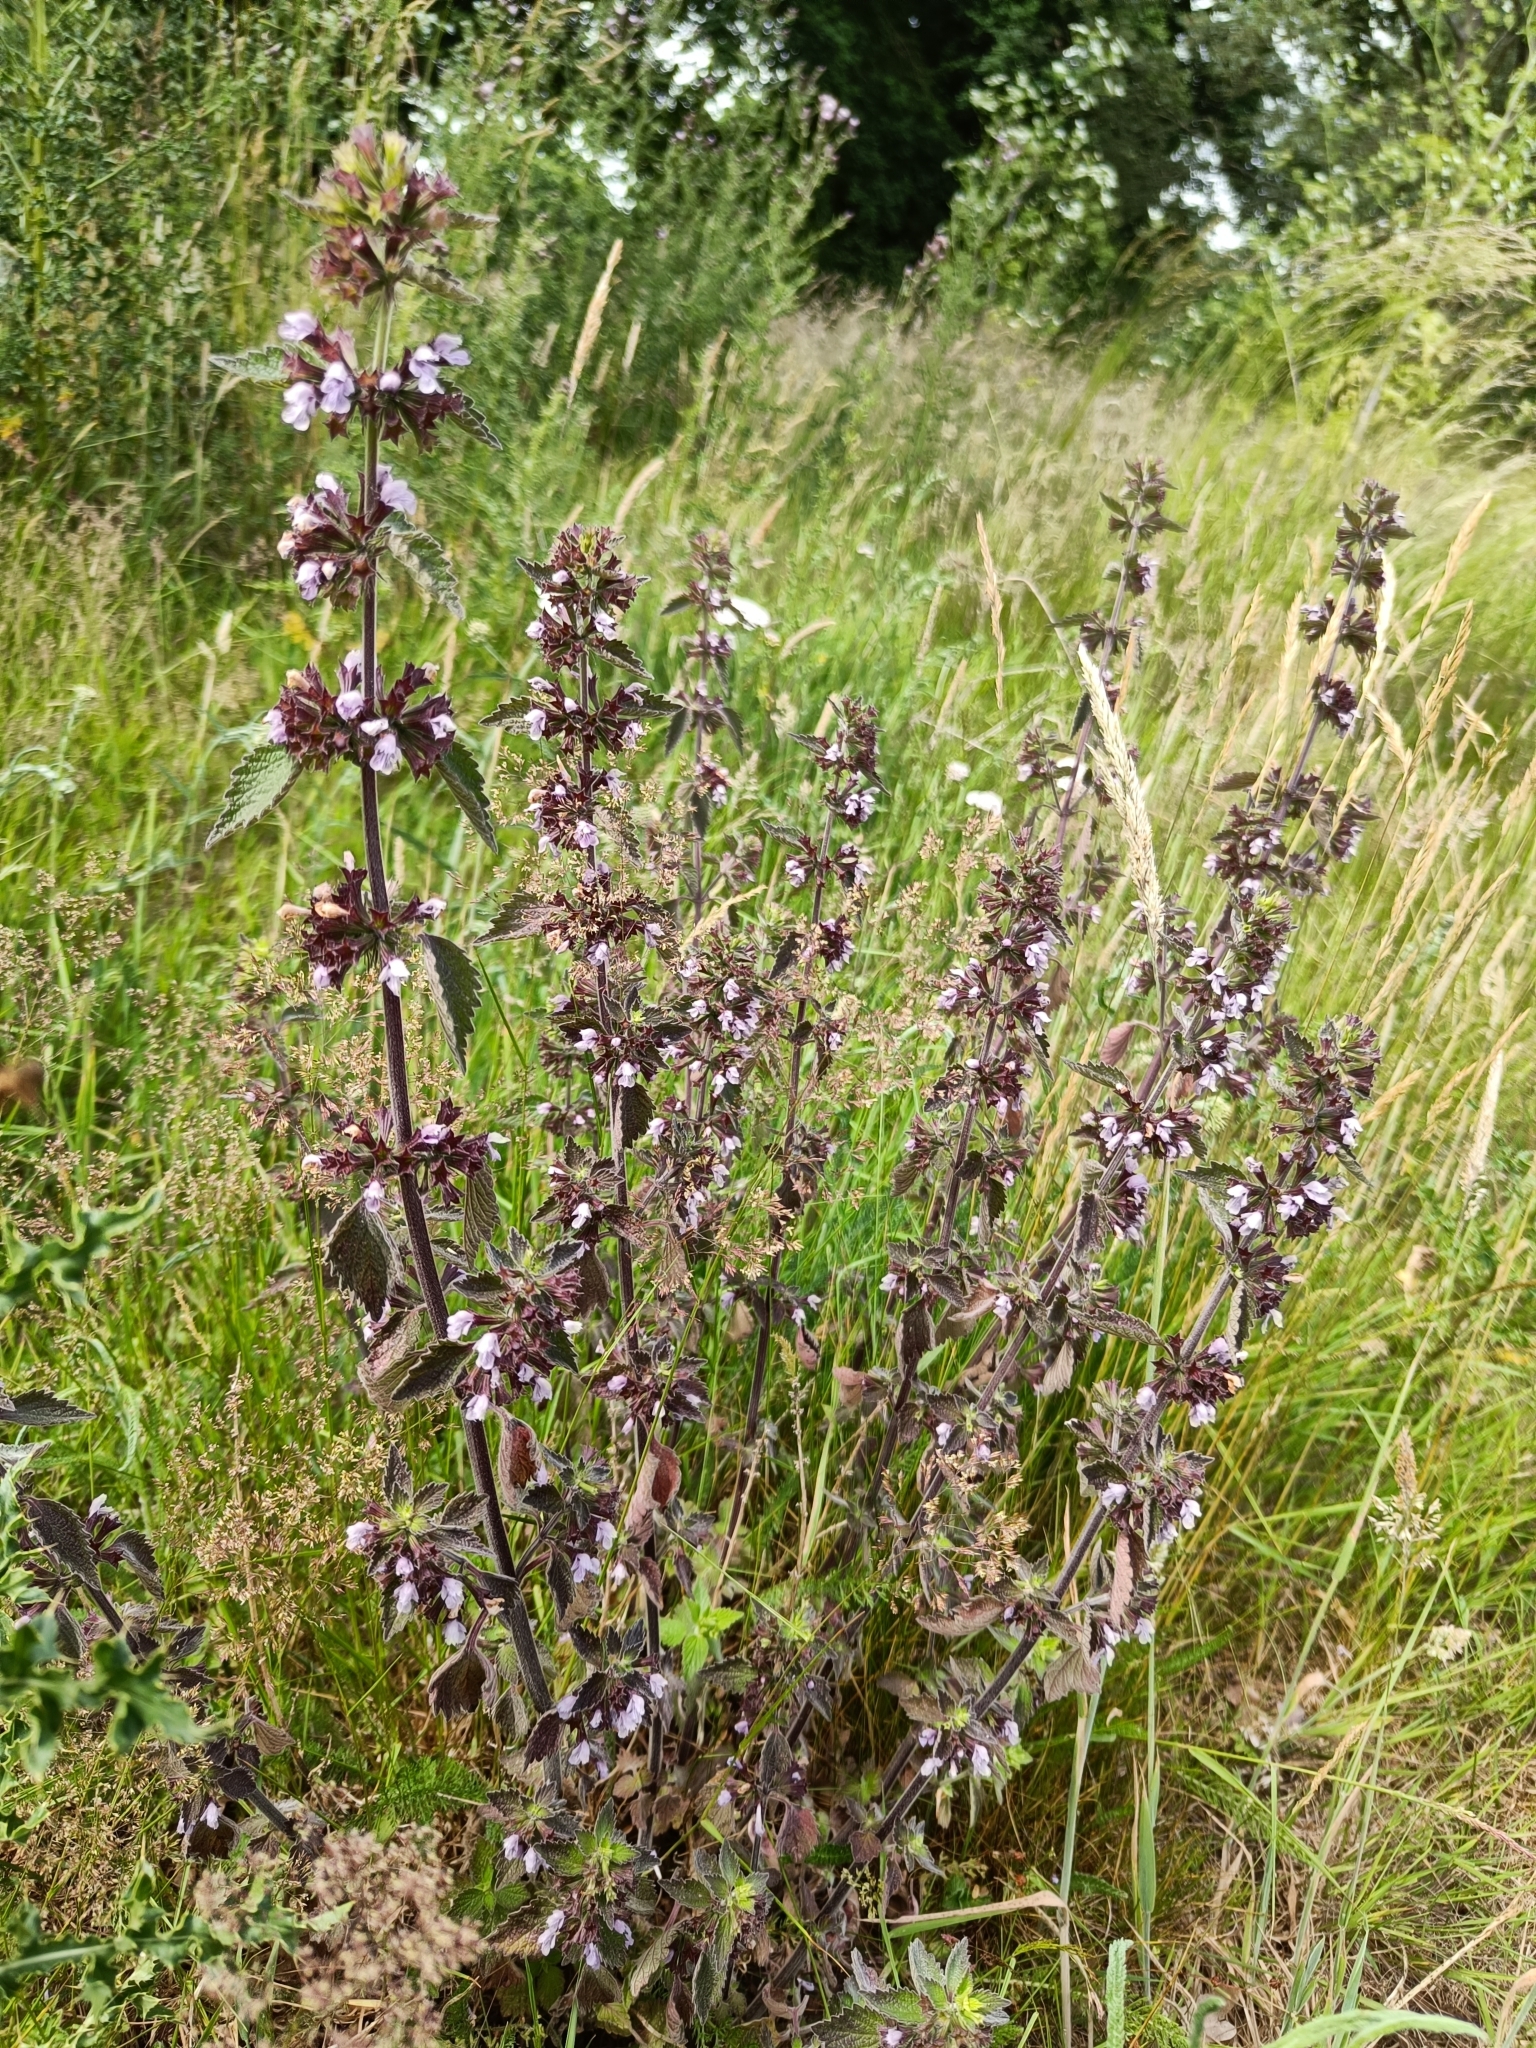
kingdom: Plantae
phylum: Tracheophyta
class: Magnoliopsida
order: Lamiales
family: Lamiaceae
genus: Ballota
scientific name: Ballota nigra
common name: Black horehound
